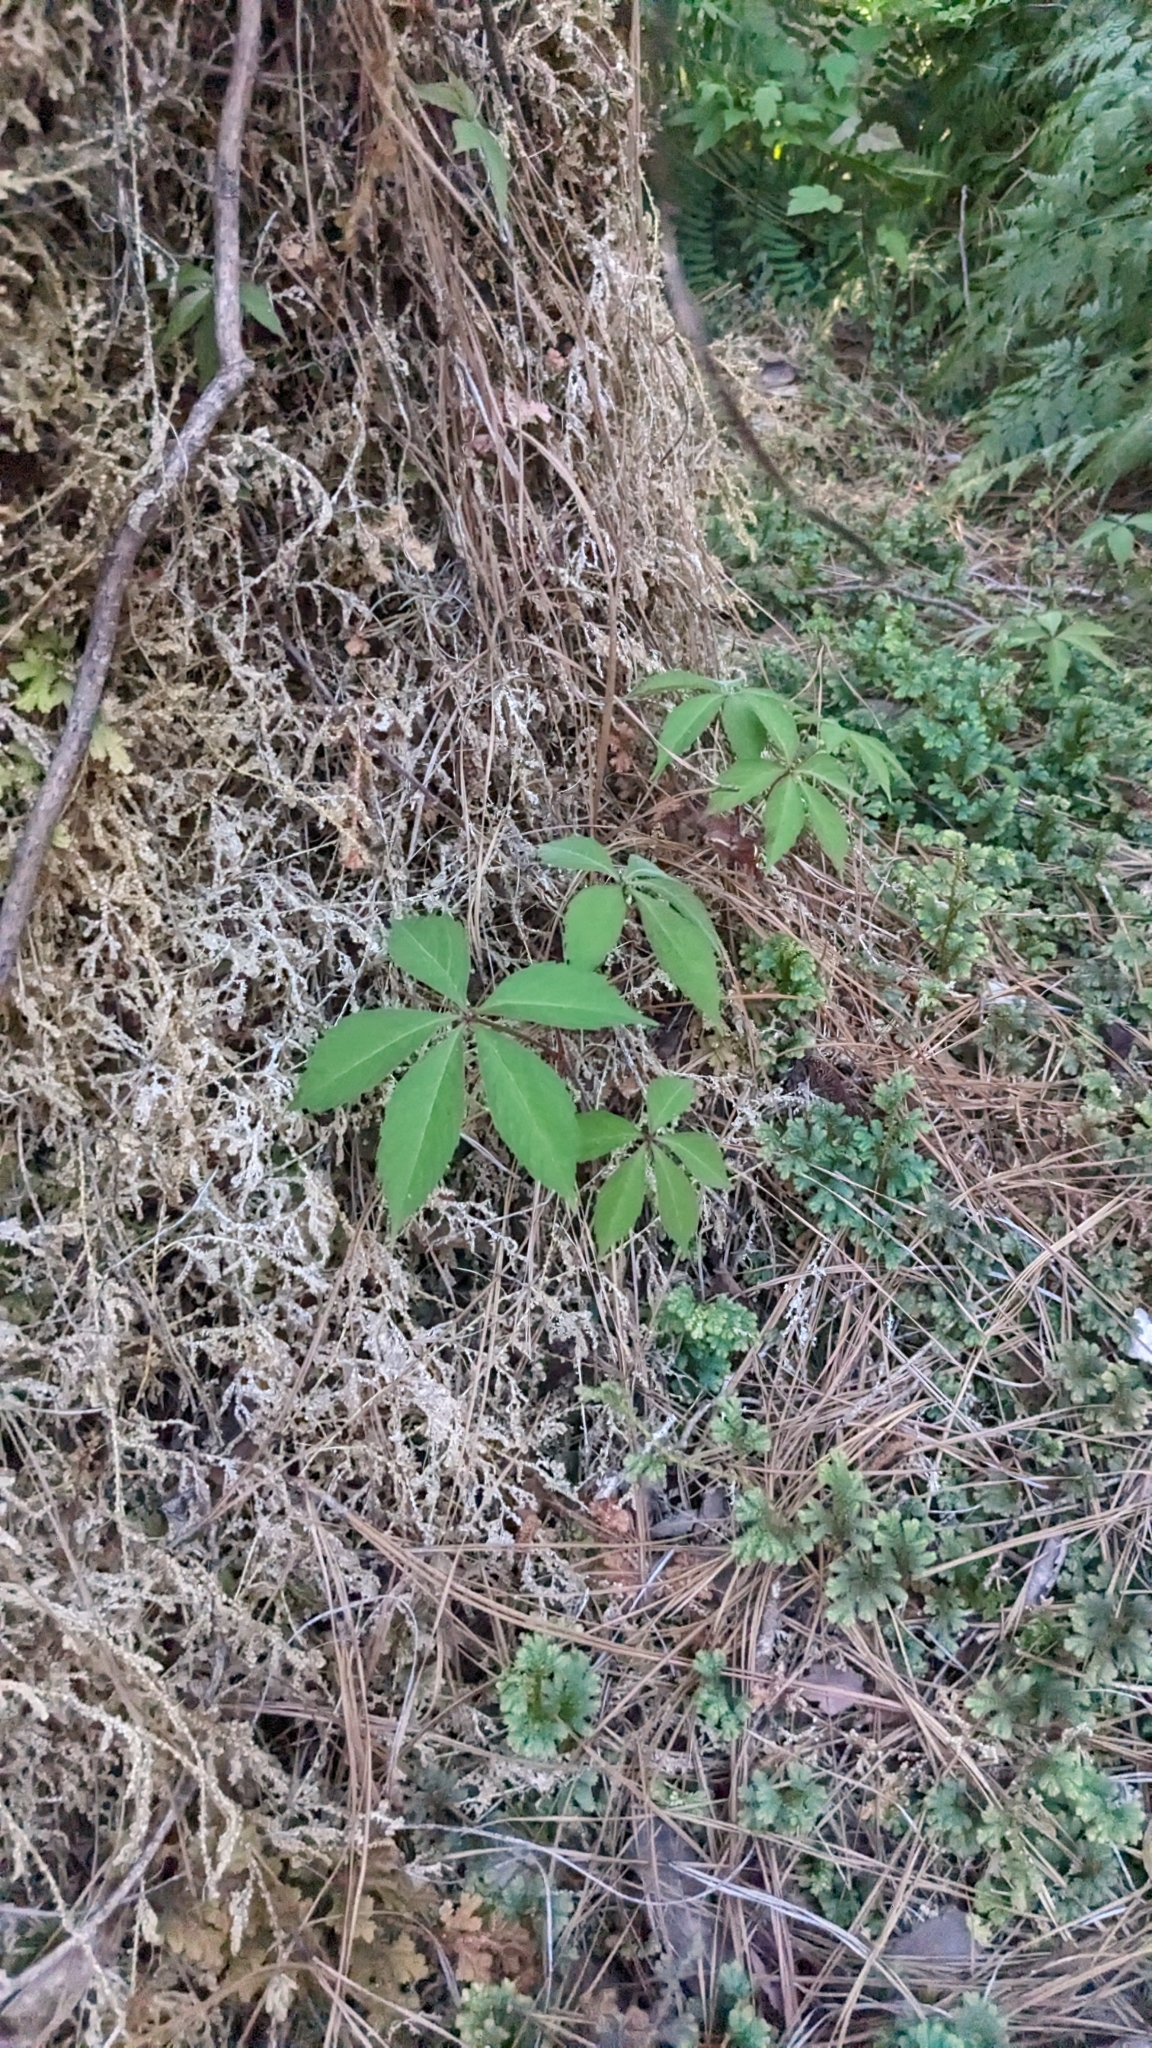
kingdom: Plantae
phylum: Tracheophyta
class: Magnoliopsida
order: Vitales
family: Vitaceae
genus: Parthenocissus
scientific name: Parthenocissus quinquefolia
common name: Virginia-creeper
